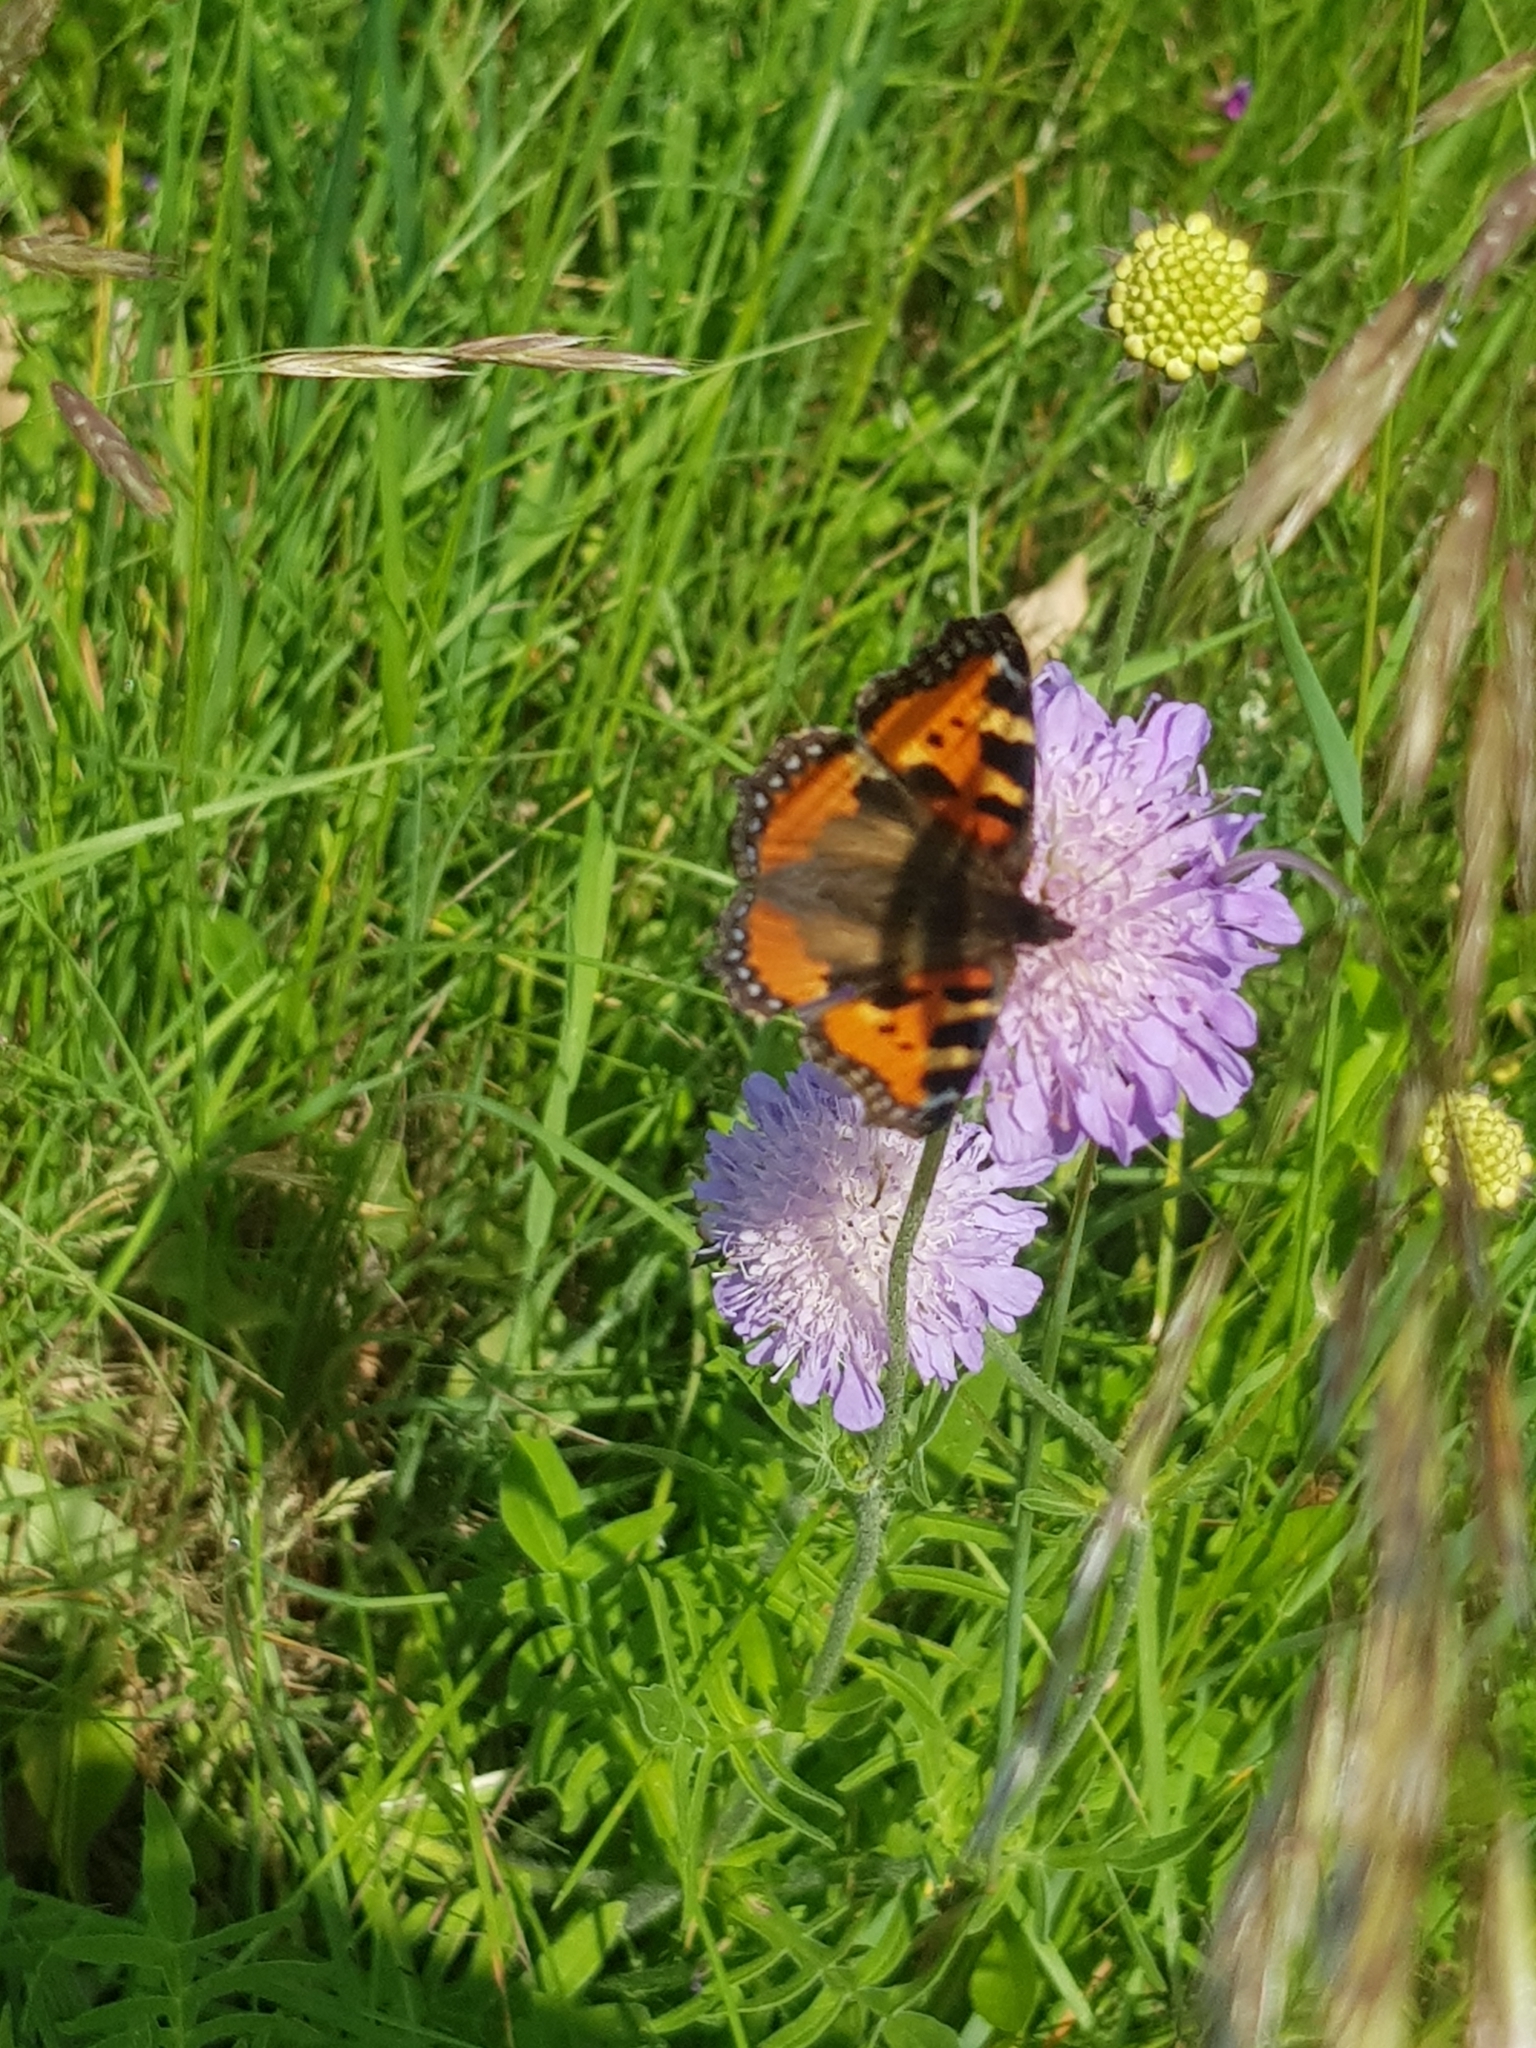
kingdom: Animalia
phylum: Arthropoda
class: Insecta
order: Lepidoptera
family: Nymphalidae
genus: Aglais
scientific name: Aglais urticae
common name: Small tortoiseshell
